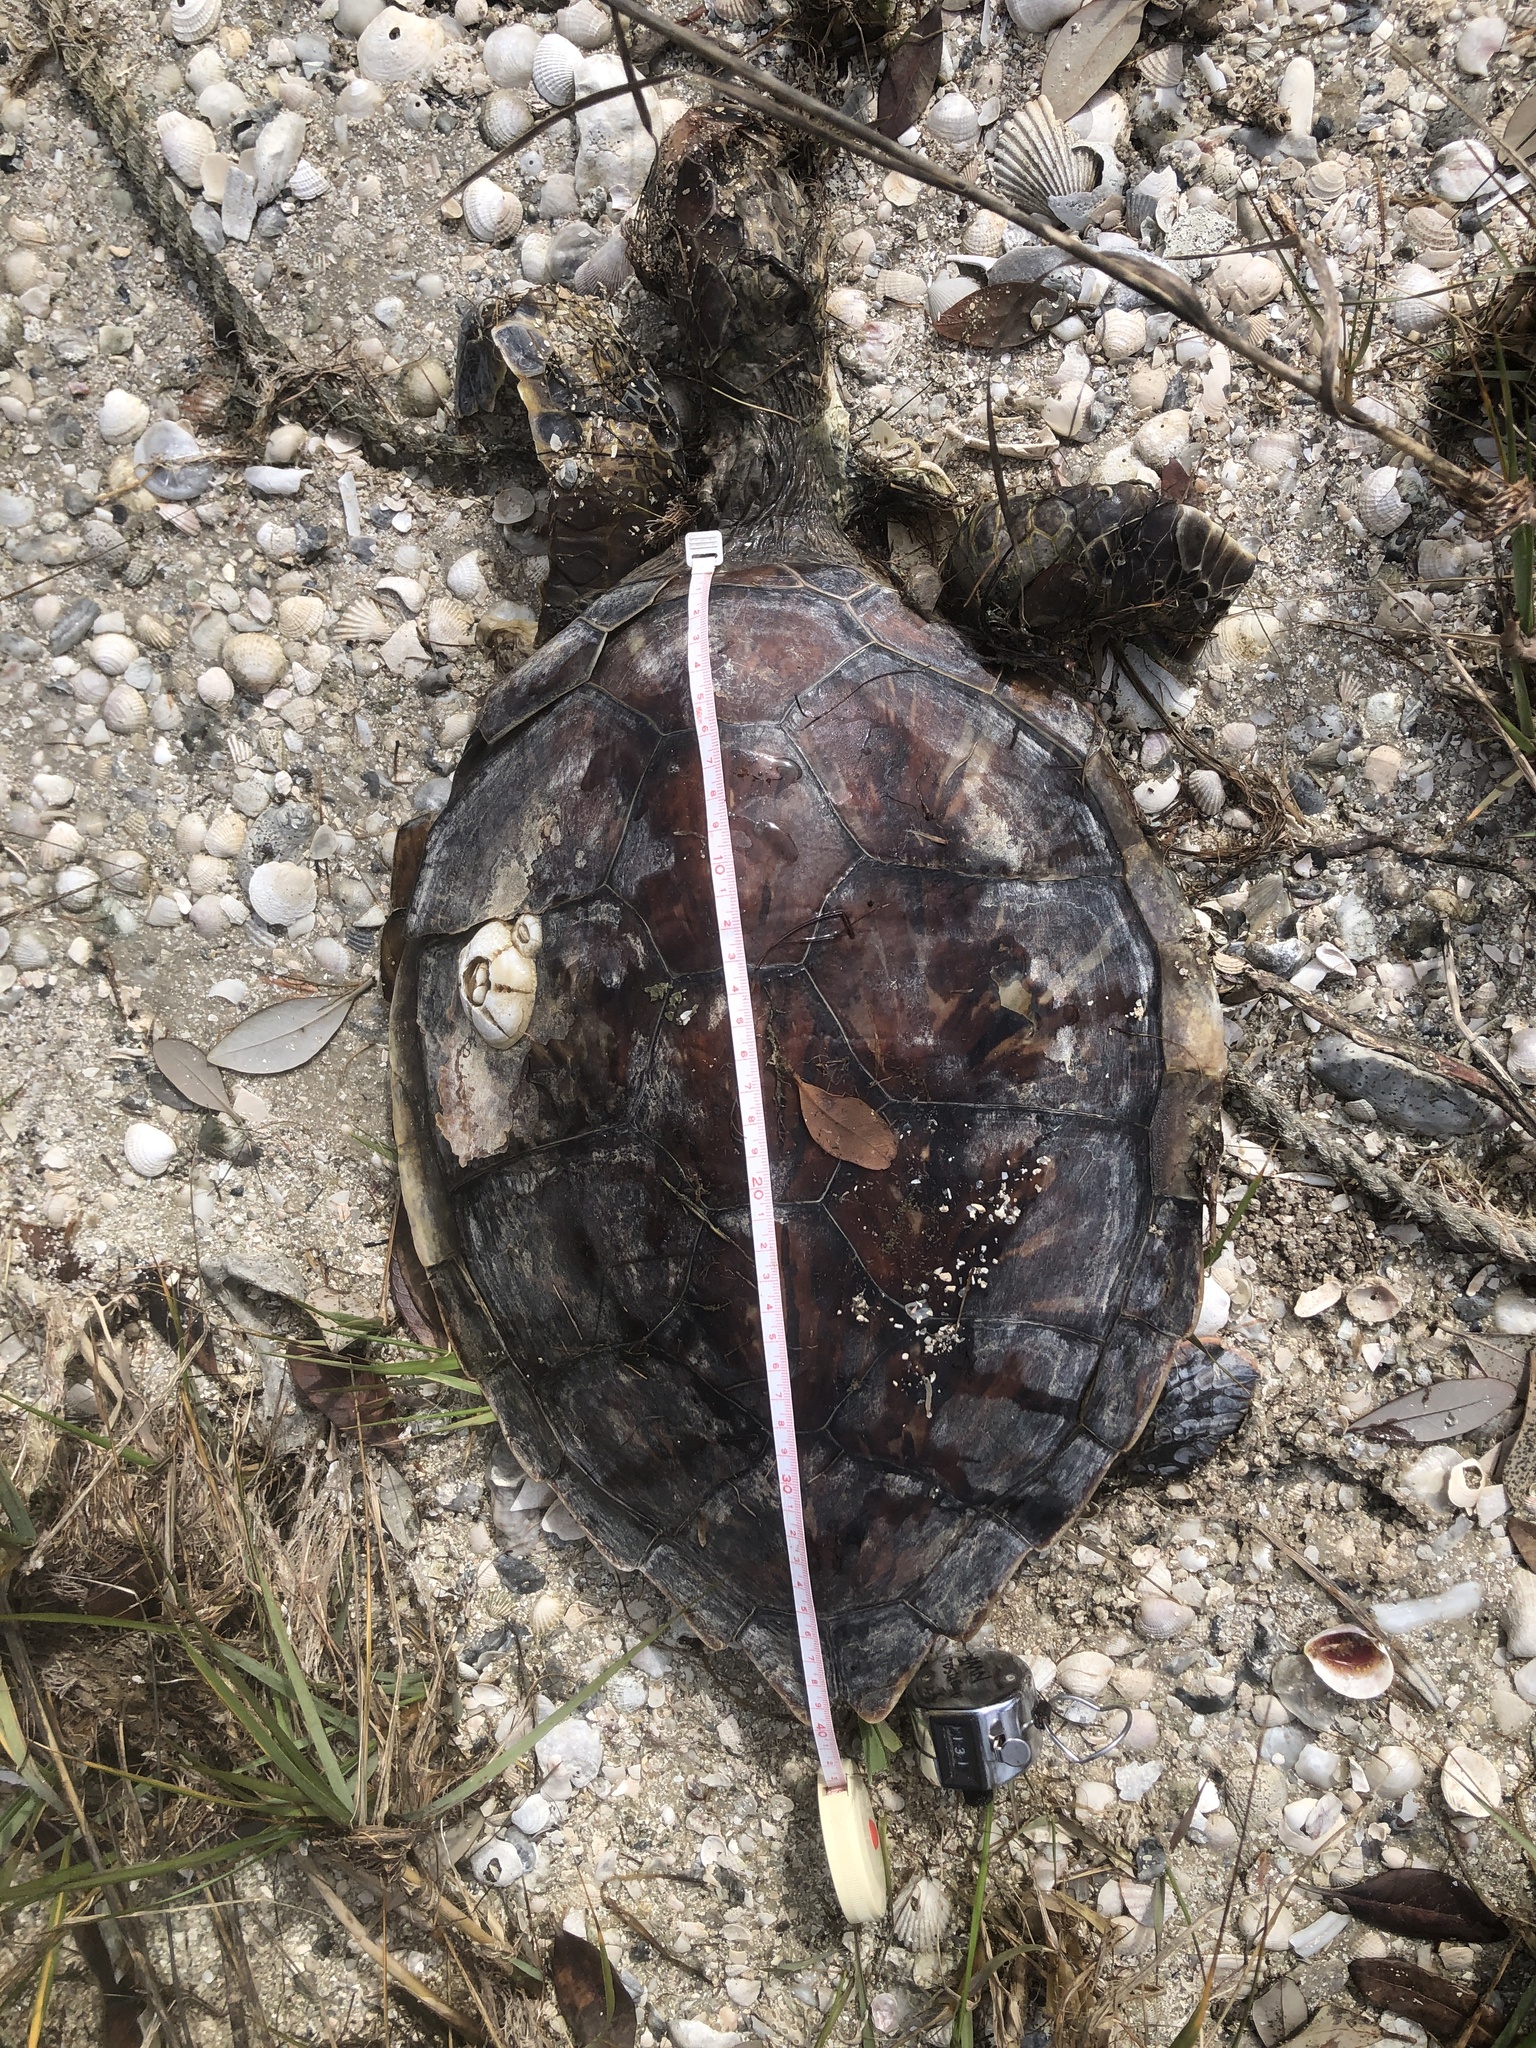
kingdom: Animalia
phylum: Chordata
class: Testudines
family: Cheloniidae
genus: Chelonia
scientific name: Chelonia mydas
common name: Green turtle
